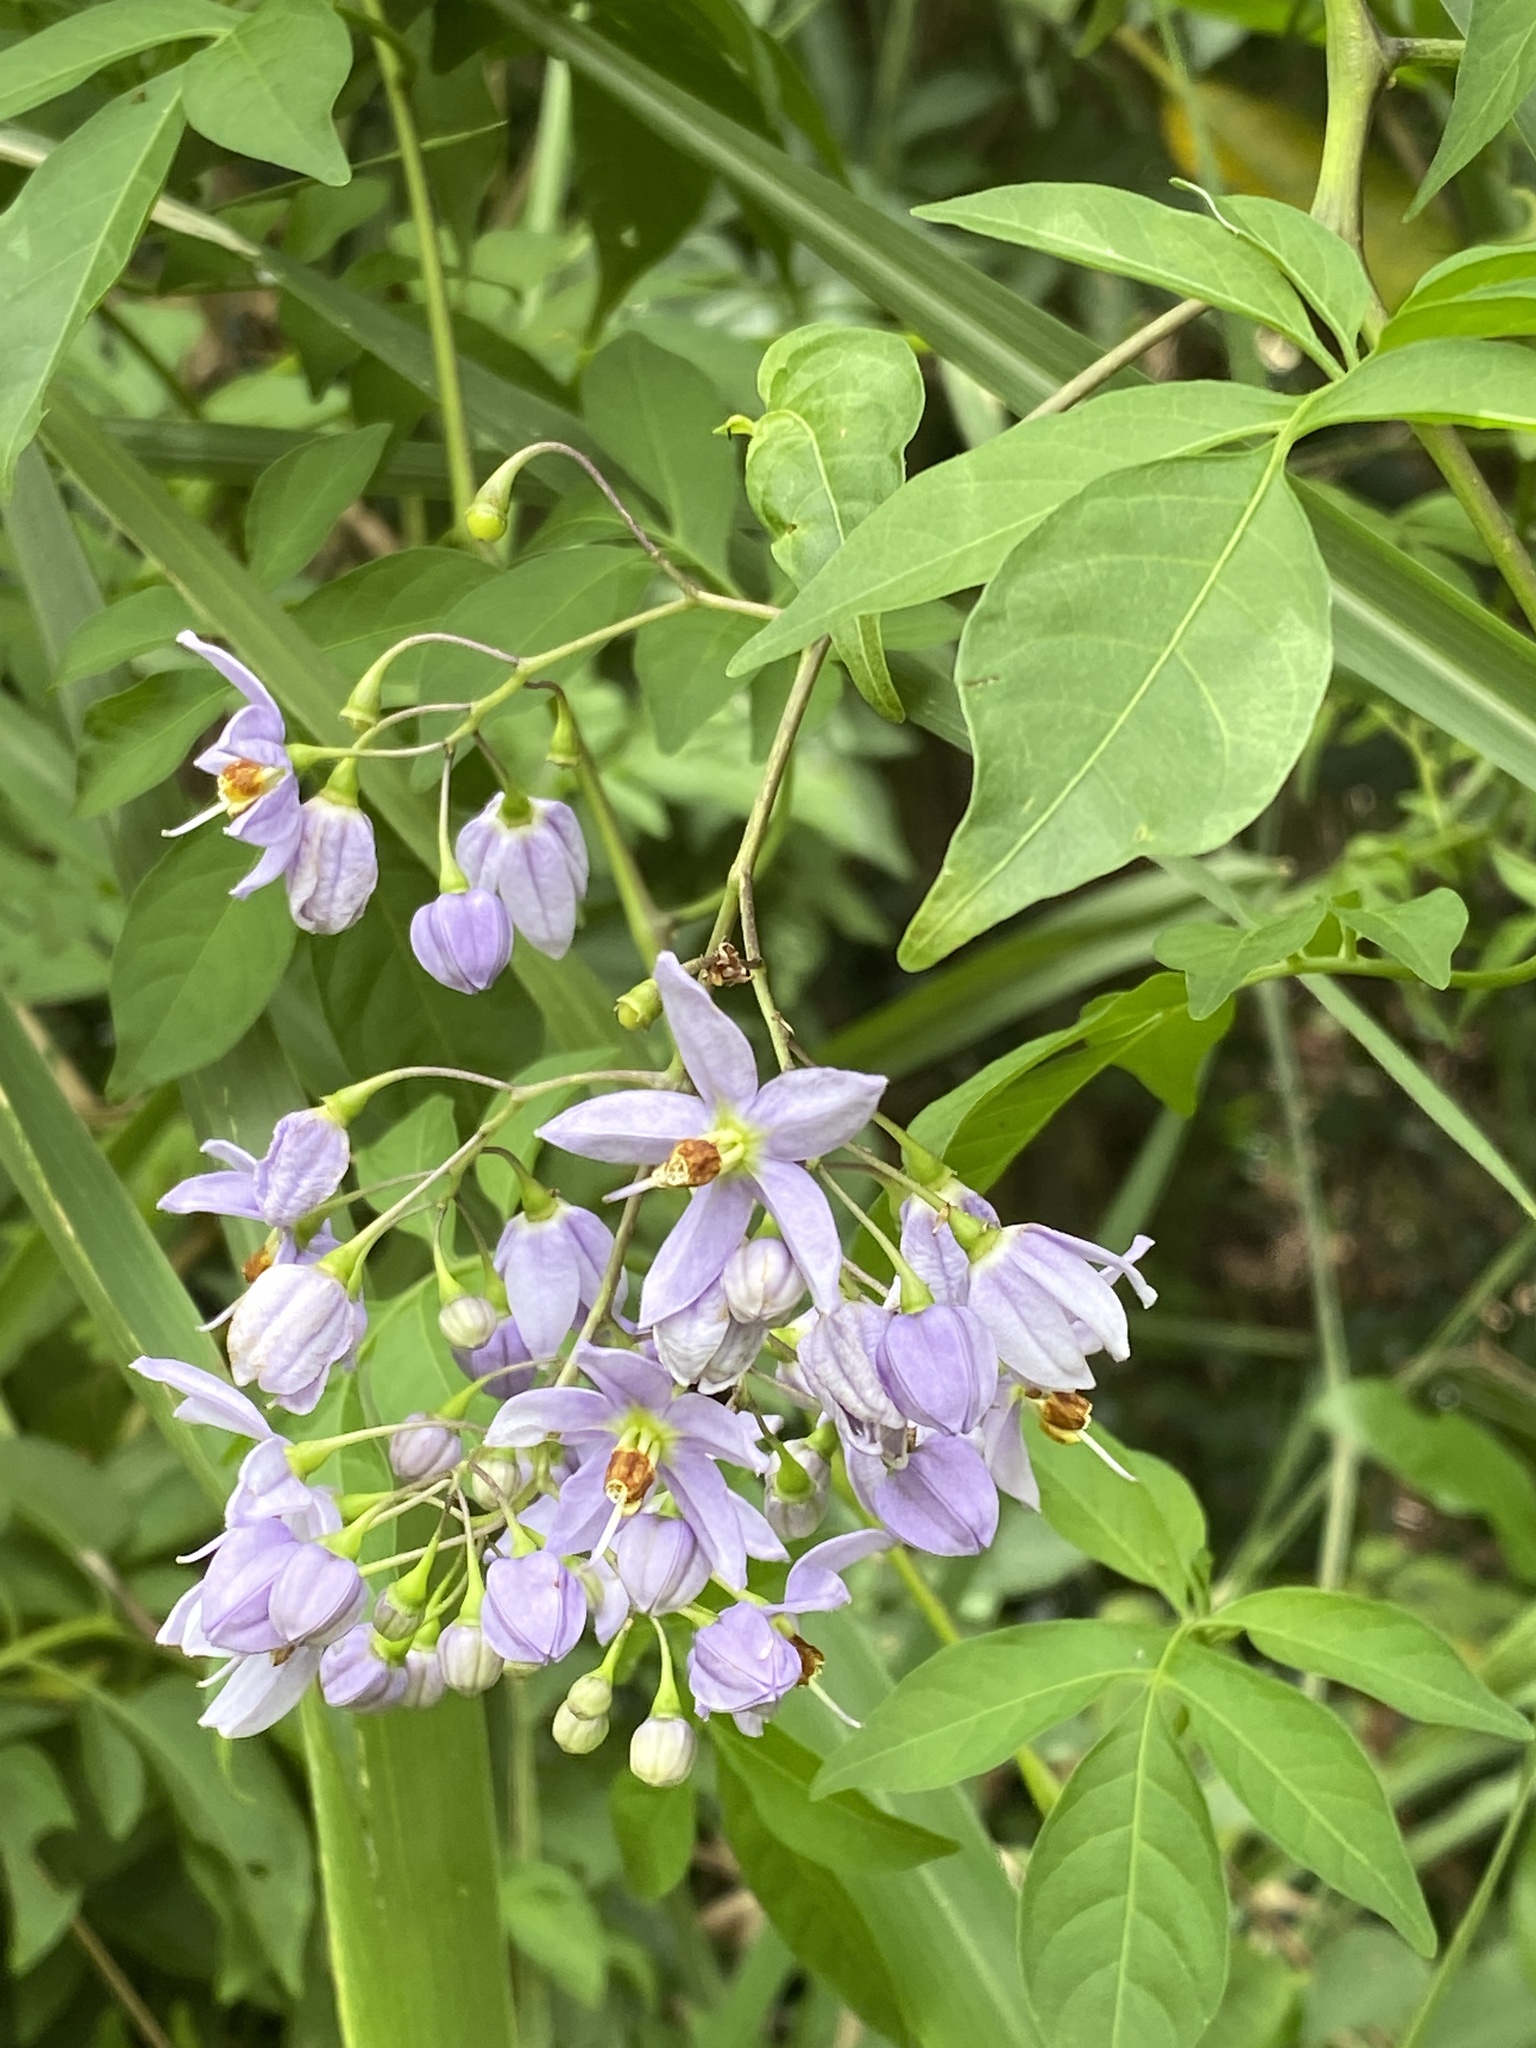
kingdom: Plantae
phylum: Tracheophyta
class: Magnoliopsida
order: Solanales
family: Solanaceae
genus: Solanum
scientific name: Solanum seaforthianum
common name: Brazilian nightshade
